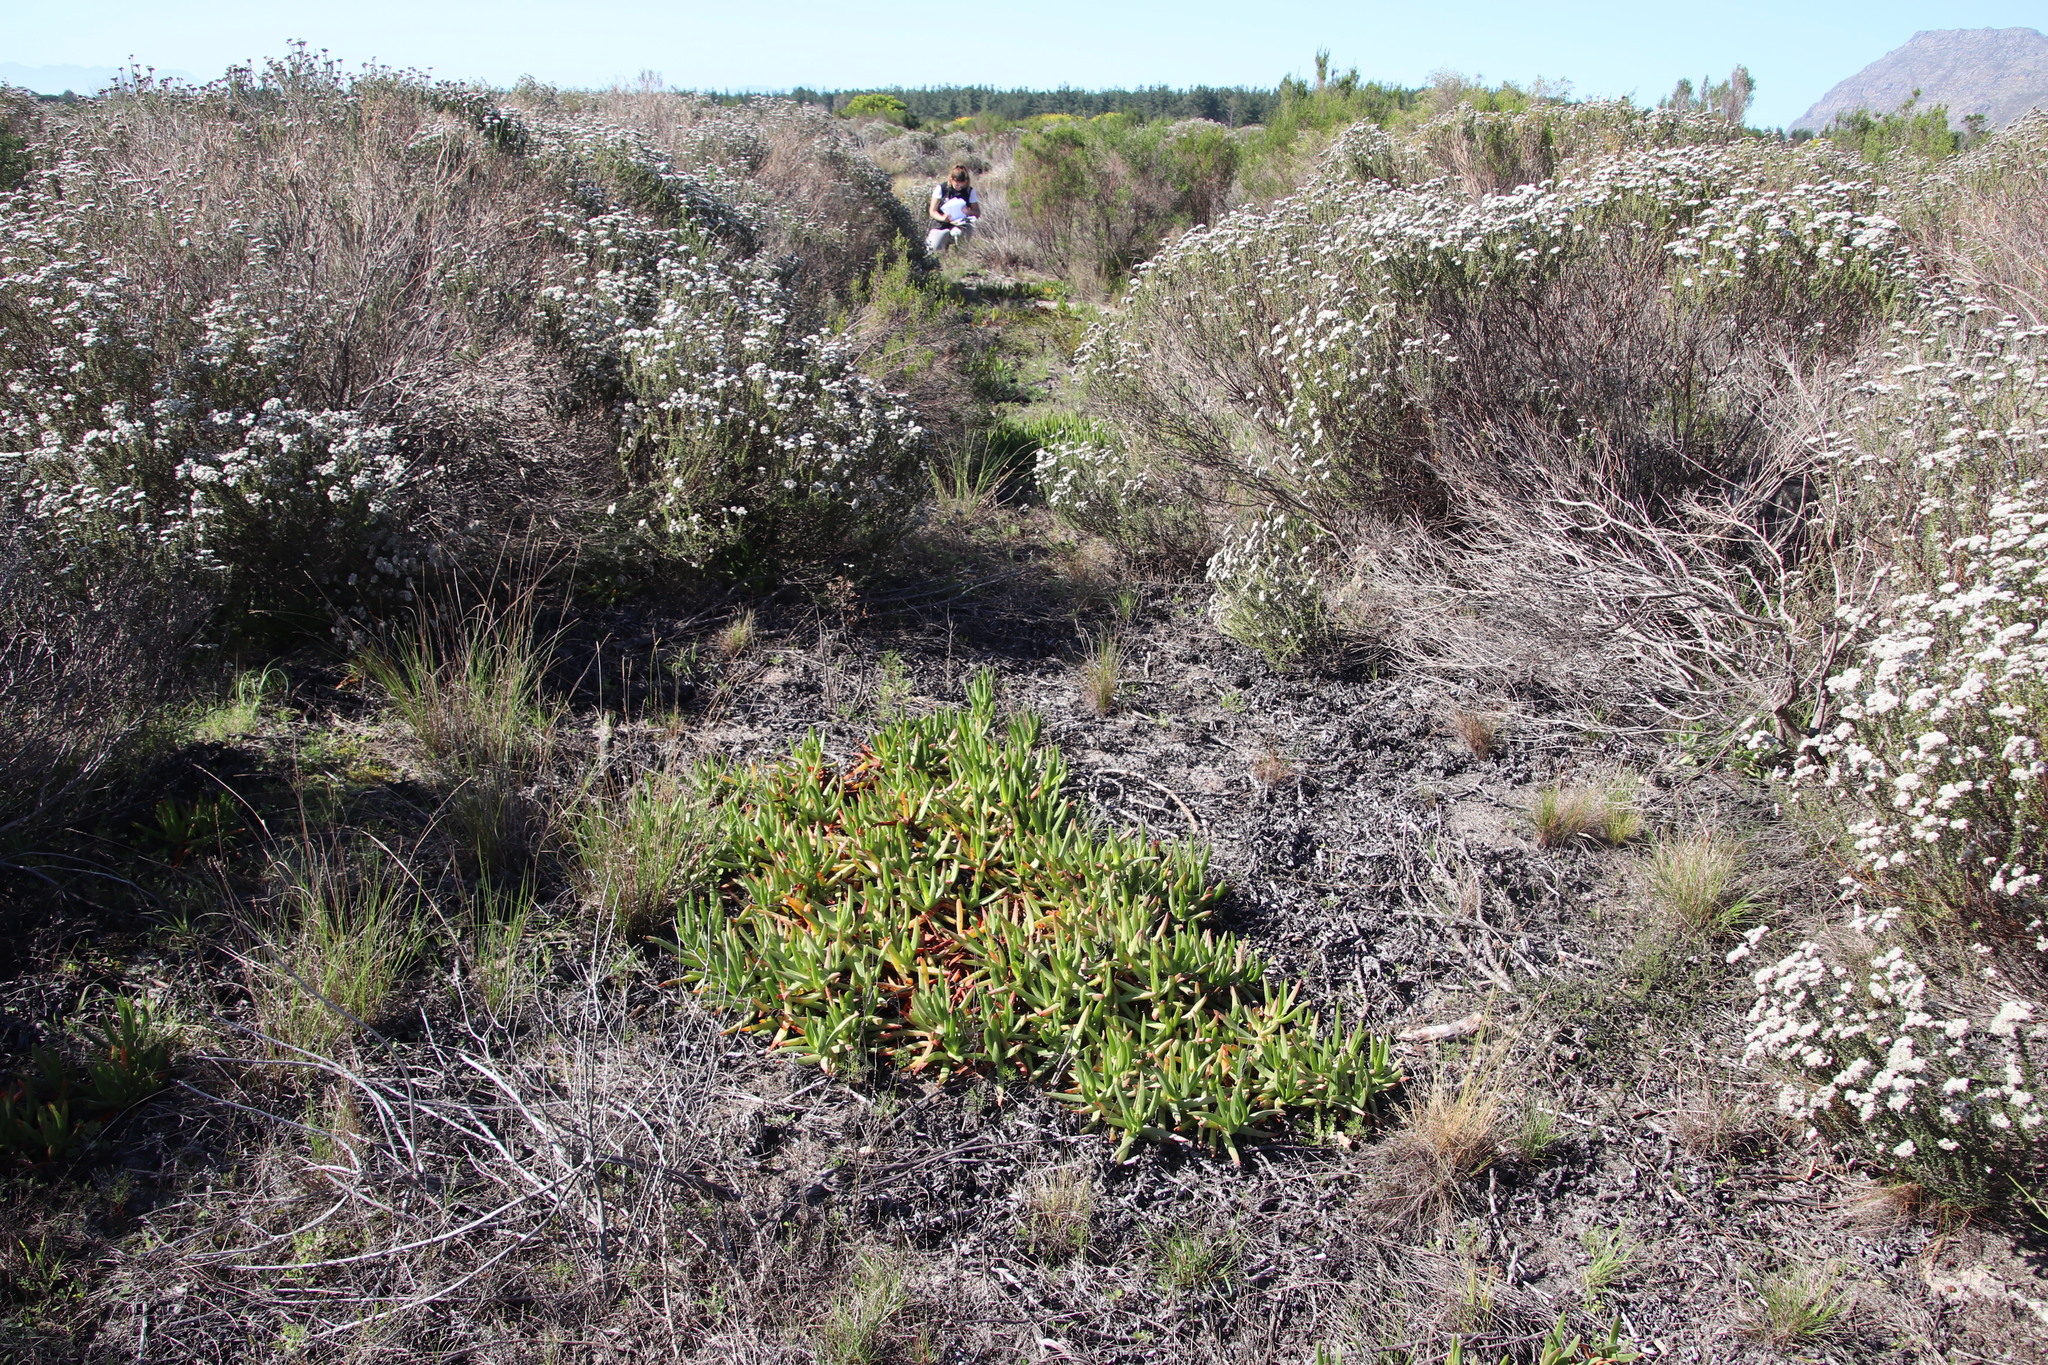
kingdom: Plantae
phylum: Tracheophyta
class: Magnoliopsida
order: Caryophyllales
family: Aizoaceae
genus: Carpobrotus
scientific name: Carpobrotus edulis
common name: Hottentot-fig
